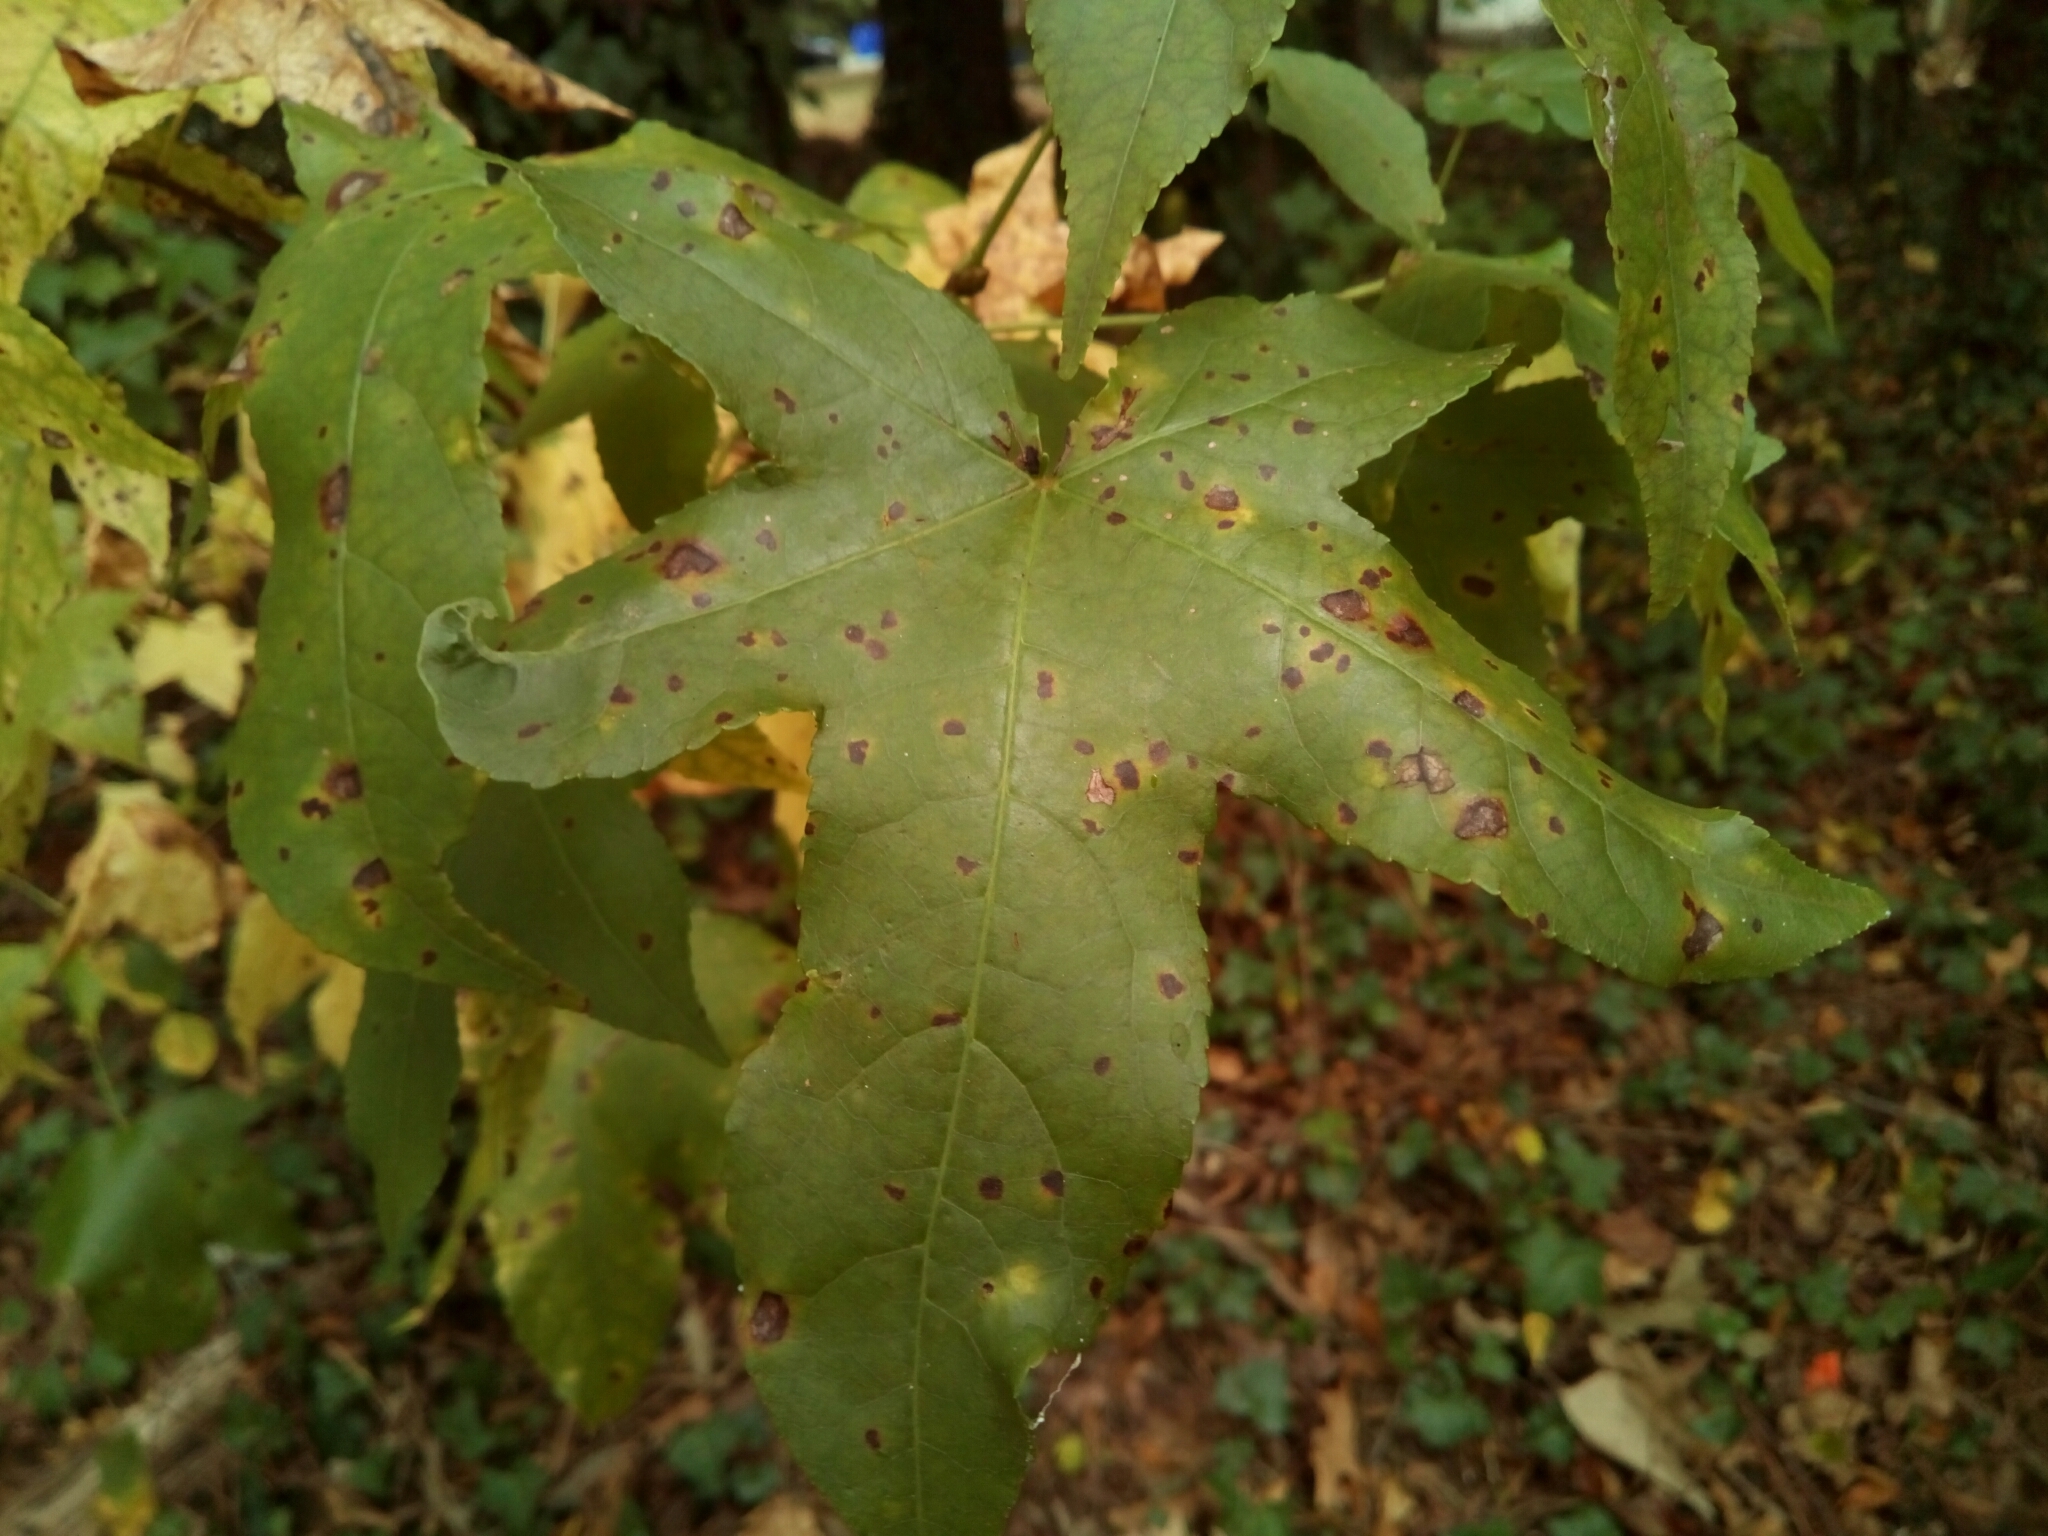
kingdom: Plantae
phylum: Tracheophyta
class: Magnoliopsida
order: Saxifragales
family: Altingiaceae
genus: Liquidambar
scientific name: Liquidambar styraciflua
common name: Sweet gum
